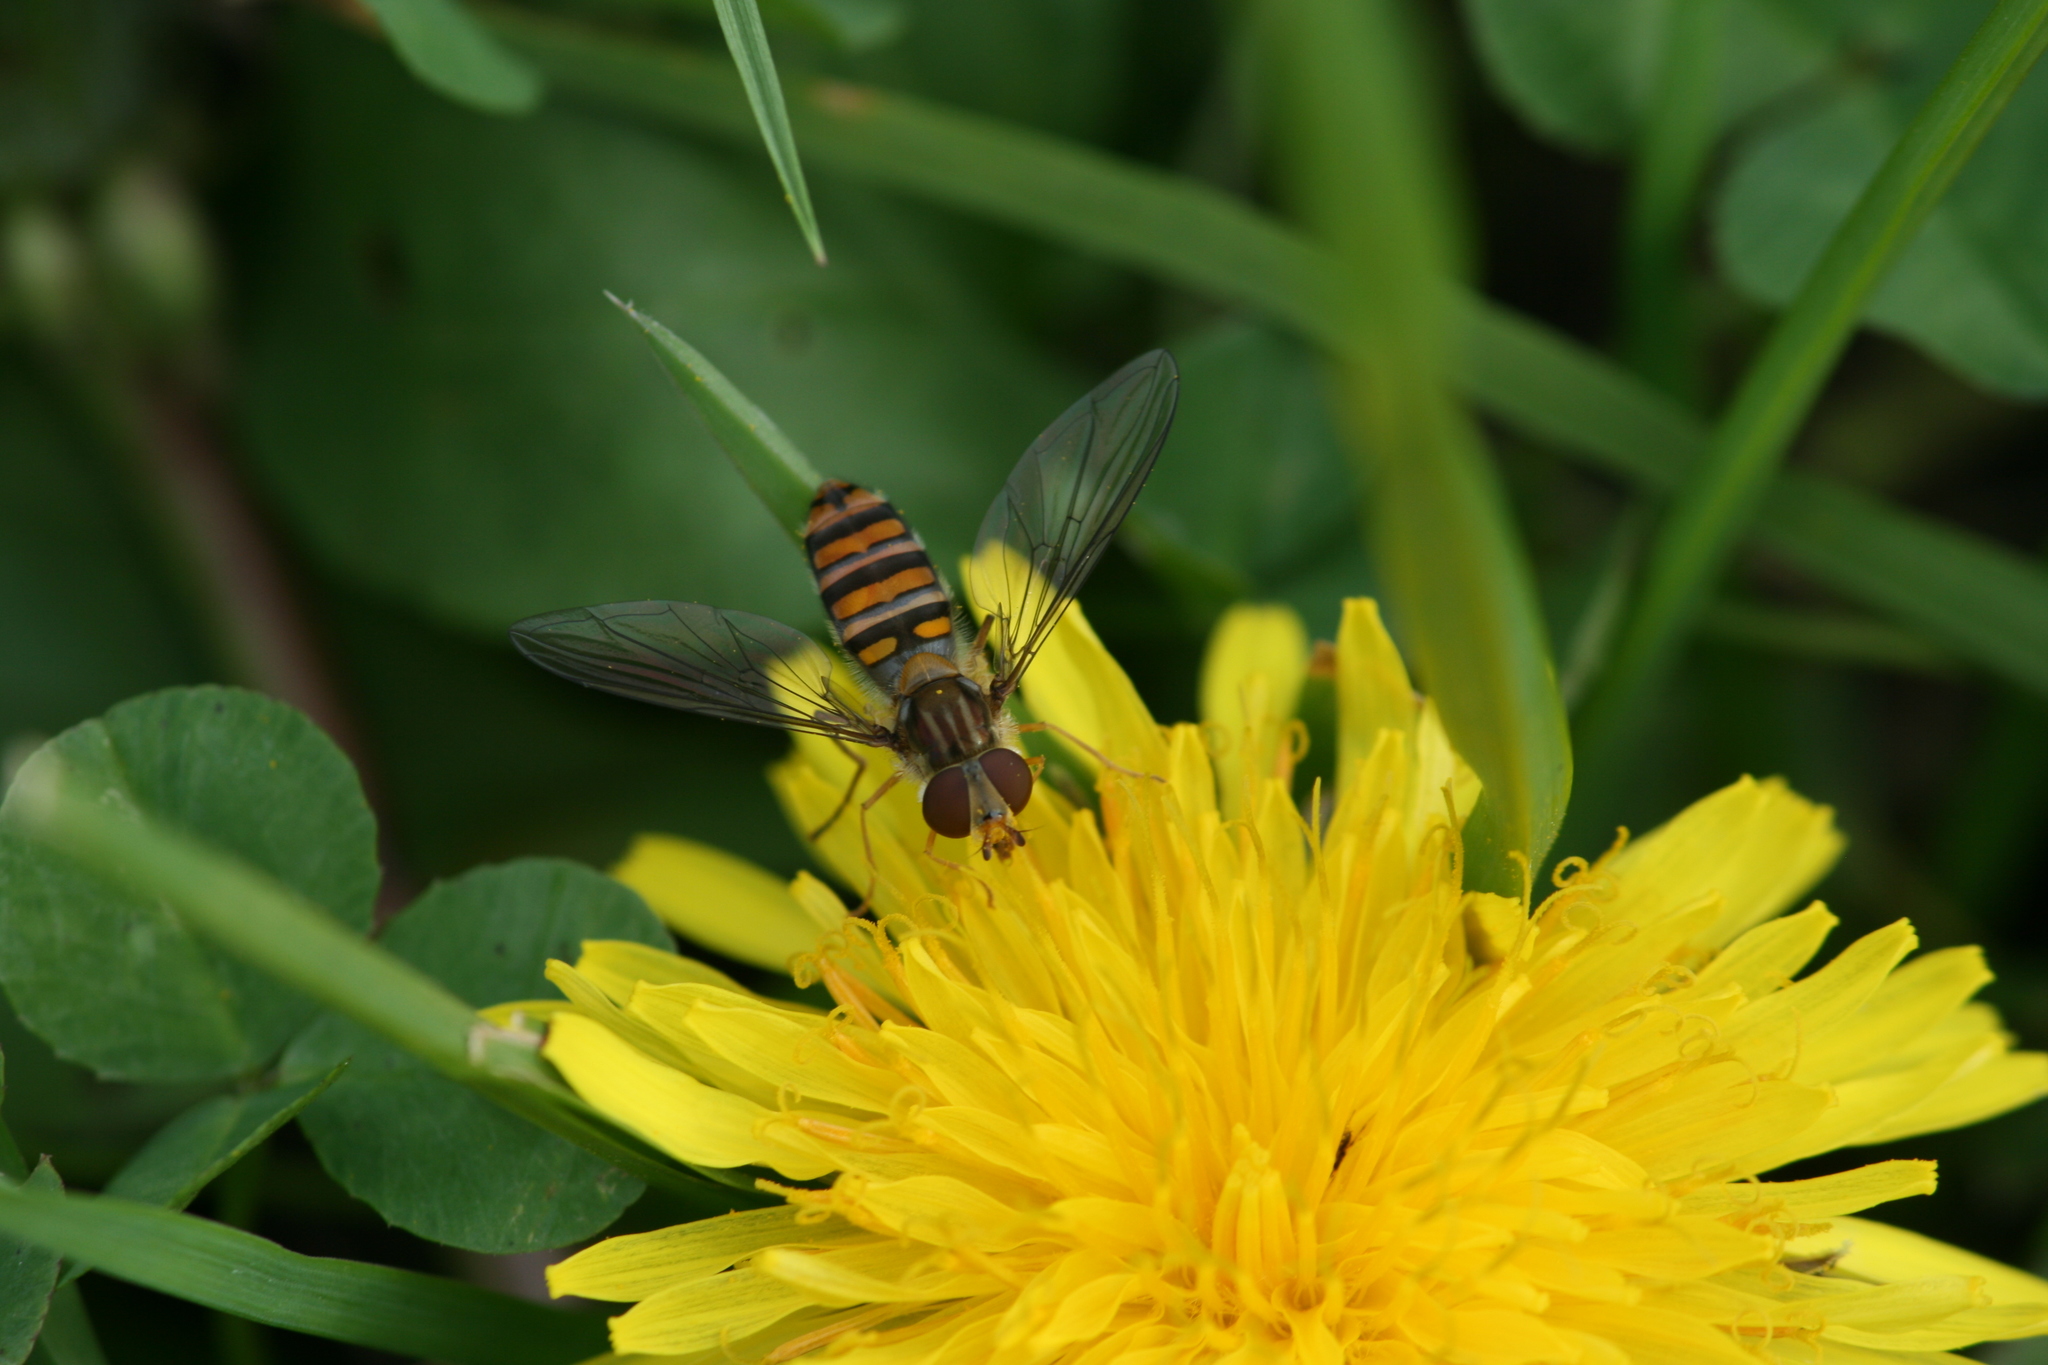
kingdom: Animalia
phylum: Arthropoda
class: Insecta
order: Diptera
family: Syrphidae
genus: Episyrphus
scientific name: Episyrphus balteatus
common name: Marmalade hoverfly
